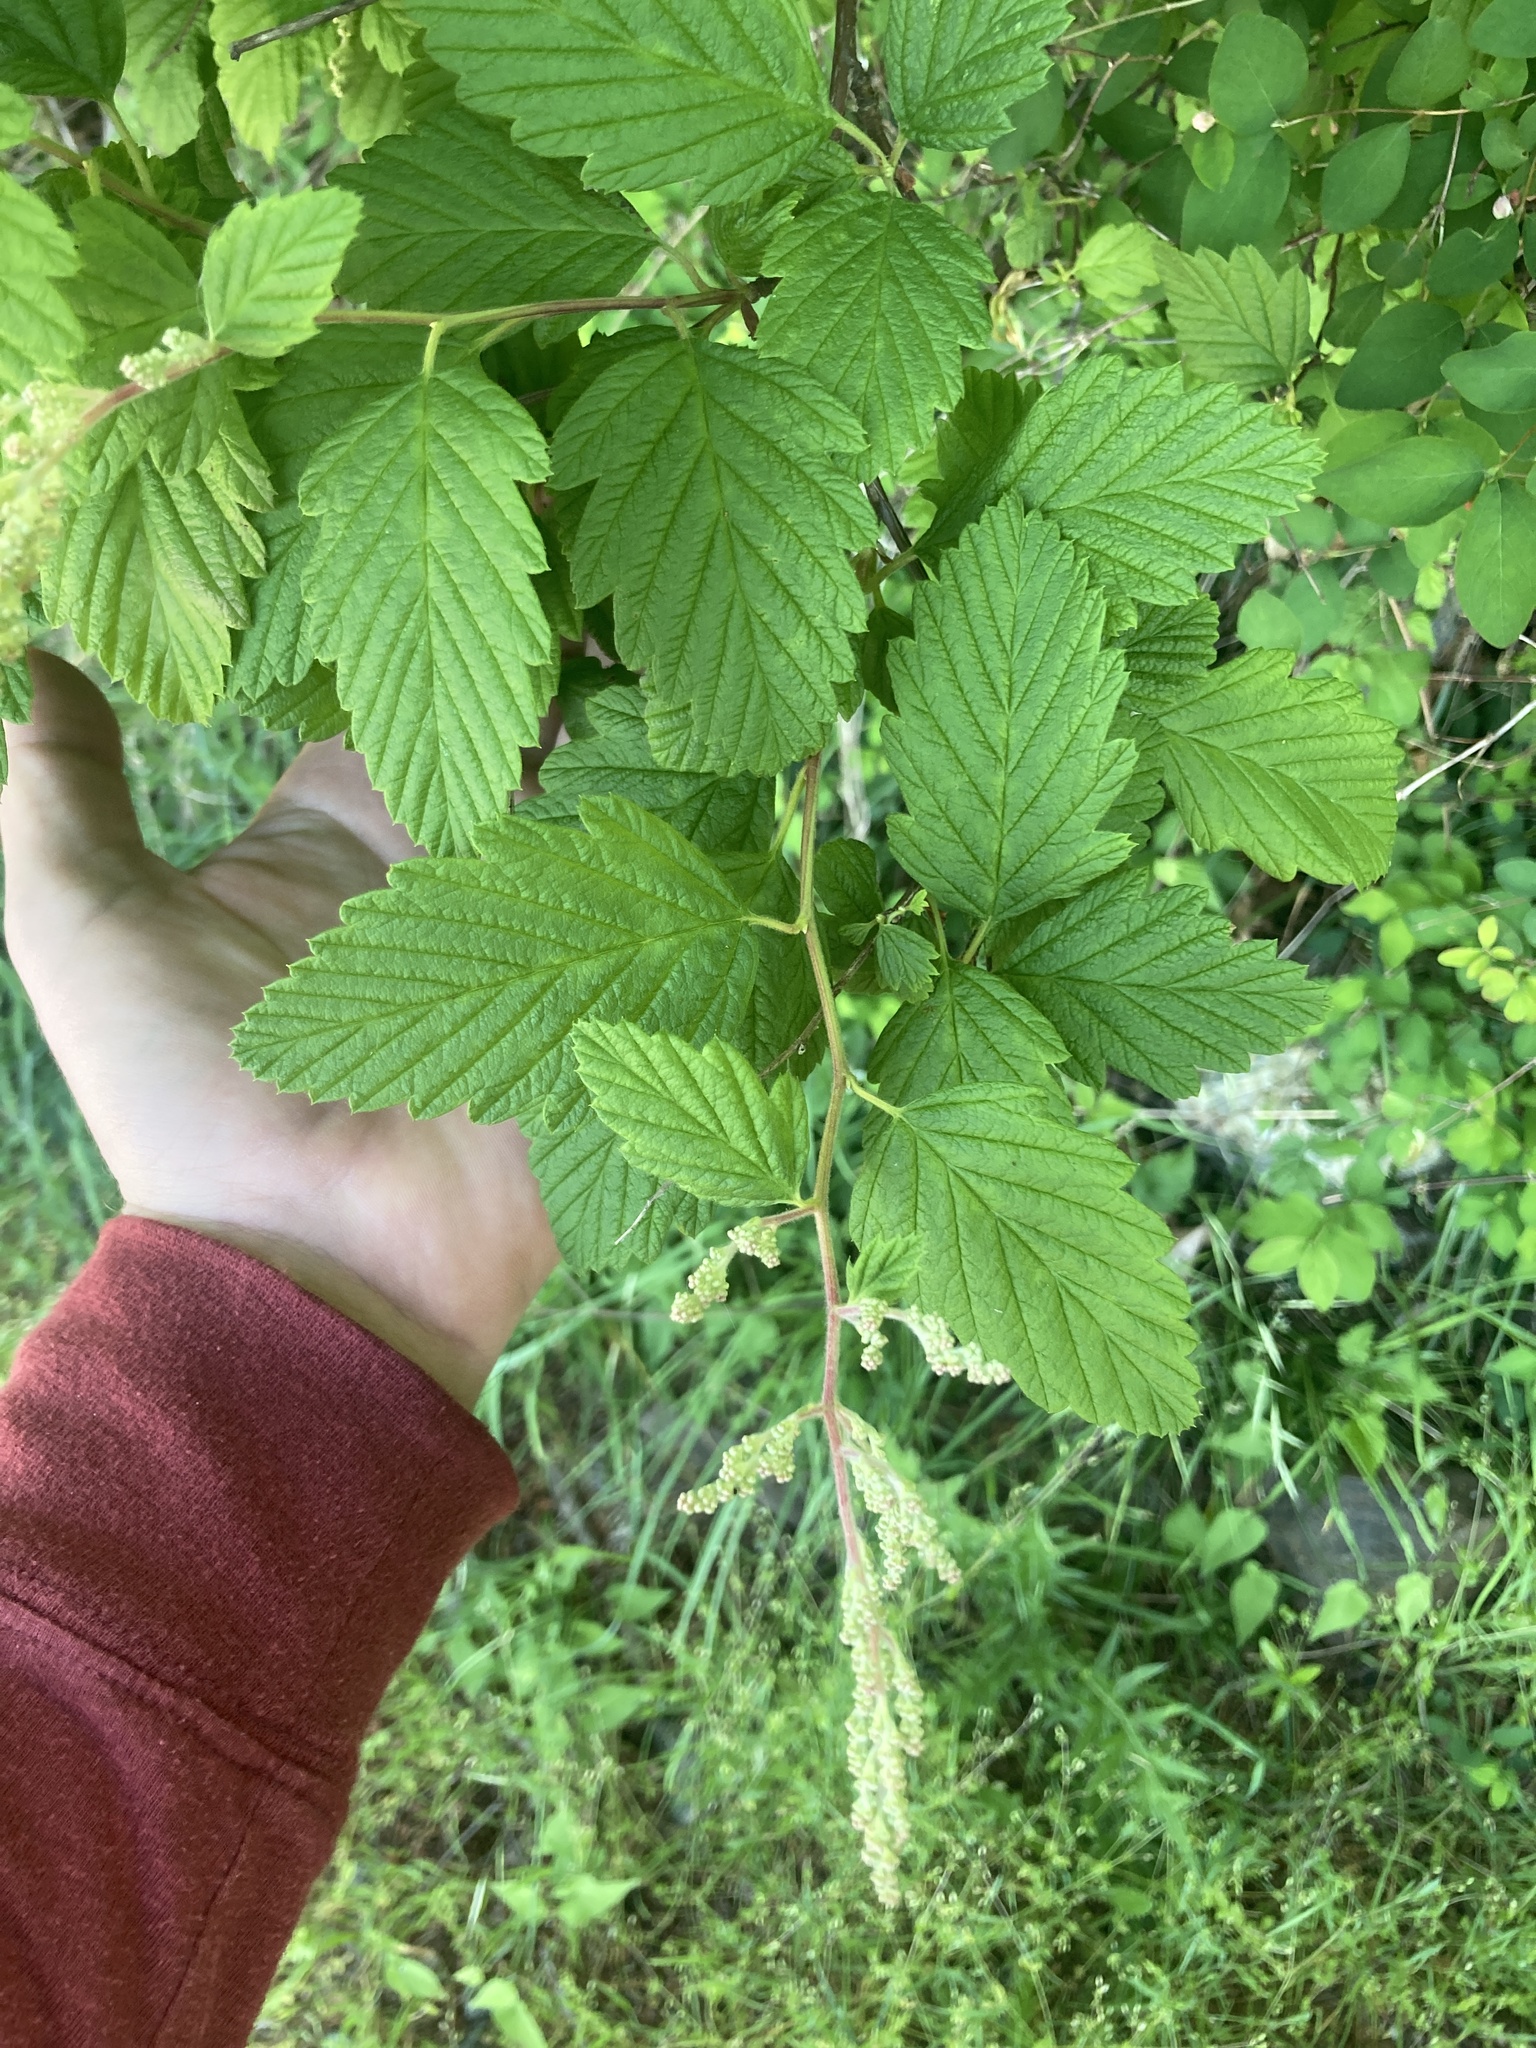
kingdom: Plantae
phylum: Tracheophyta
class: Magnoliopsida
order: Rosales
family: Rosaceae
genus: Holodiscus
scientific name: Holodiscus discolor
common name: Oceanspray
